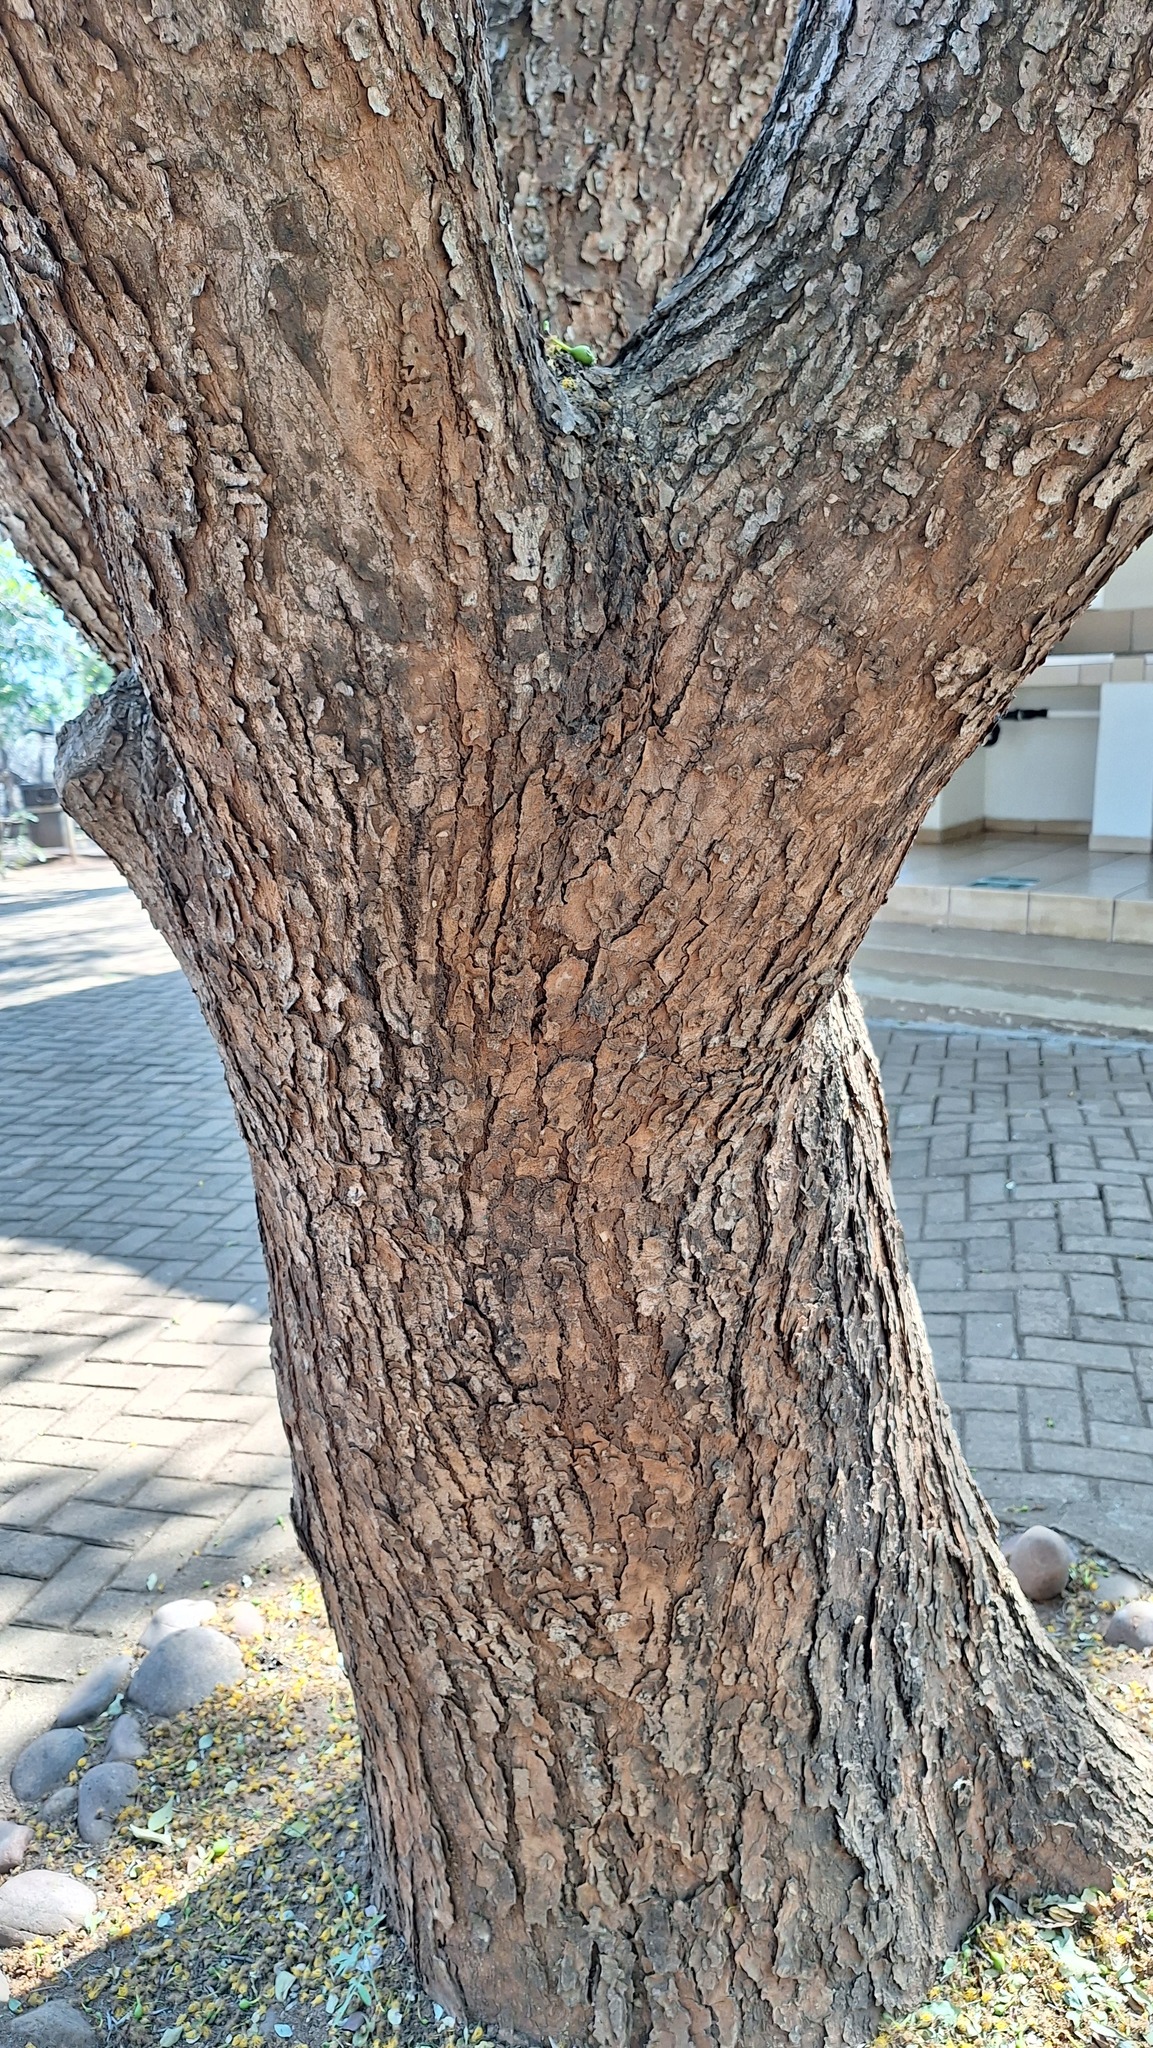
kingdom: Plantae
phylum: Tracheophyta
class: Magnoliopsida
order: Fabales
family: Fabaceae
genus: Cordyla
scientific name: Cordyla africana
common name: Wild mango
